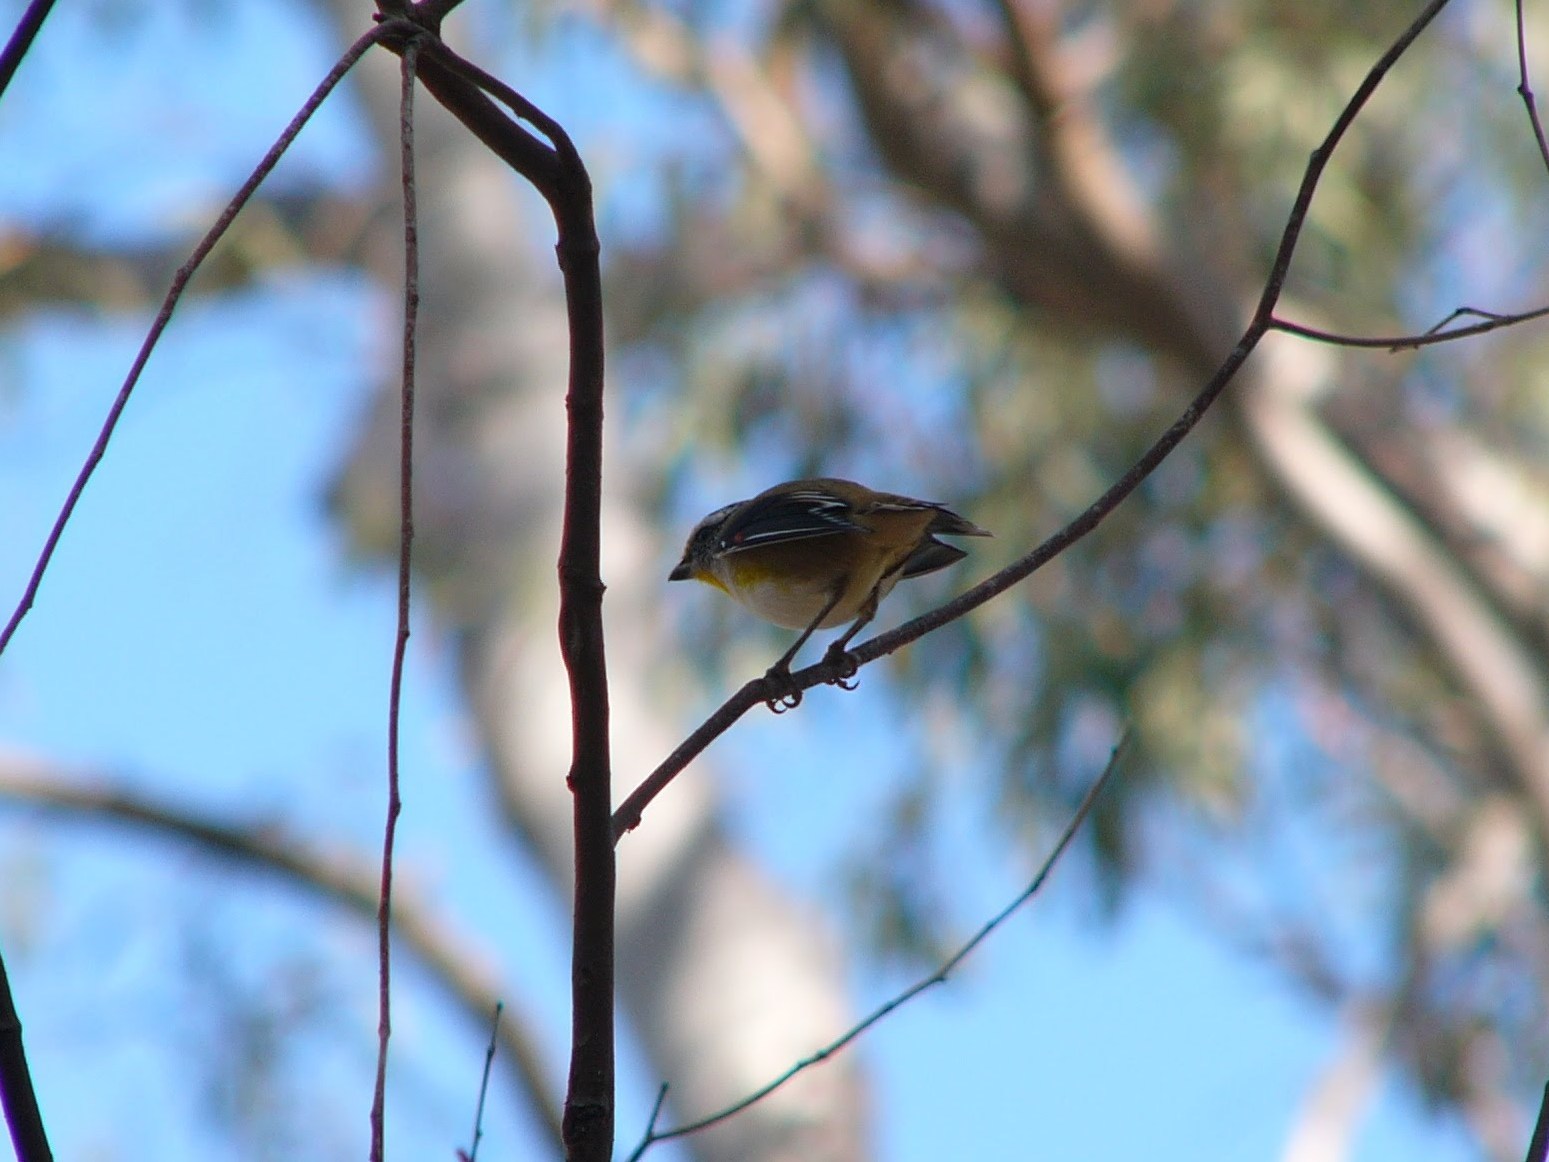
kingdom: Animalia
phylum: Chordata
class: Aves
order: Passeriformes
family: Pardalotidae
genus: Pardalotus
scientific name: Pardalotus striatus
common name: Striated pardalote
